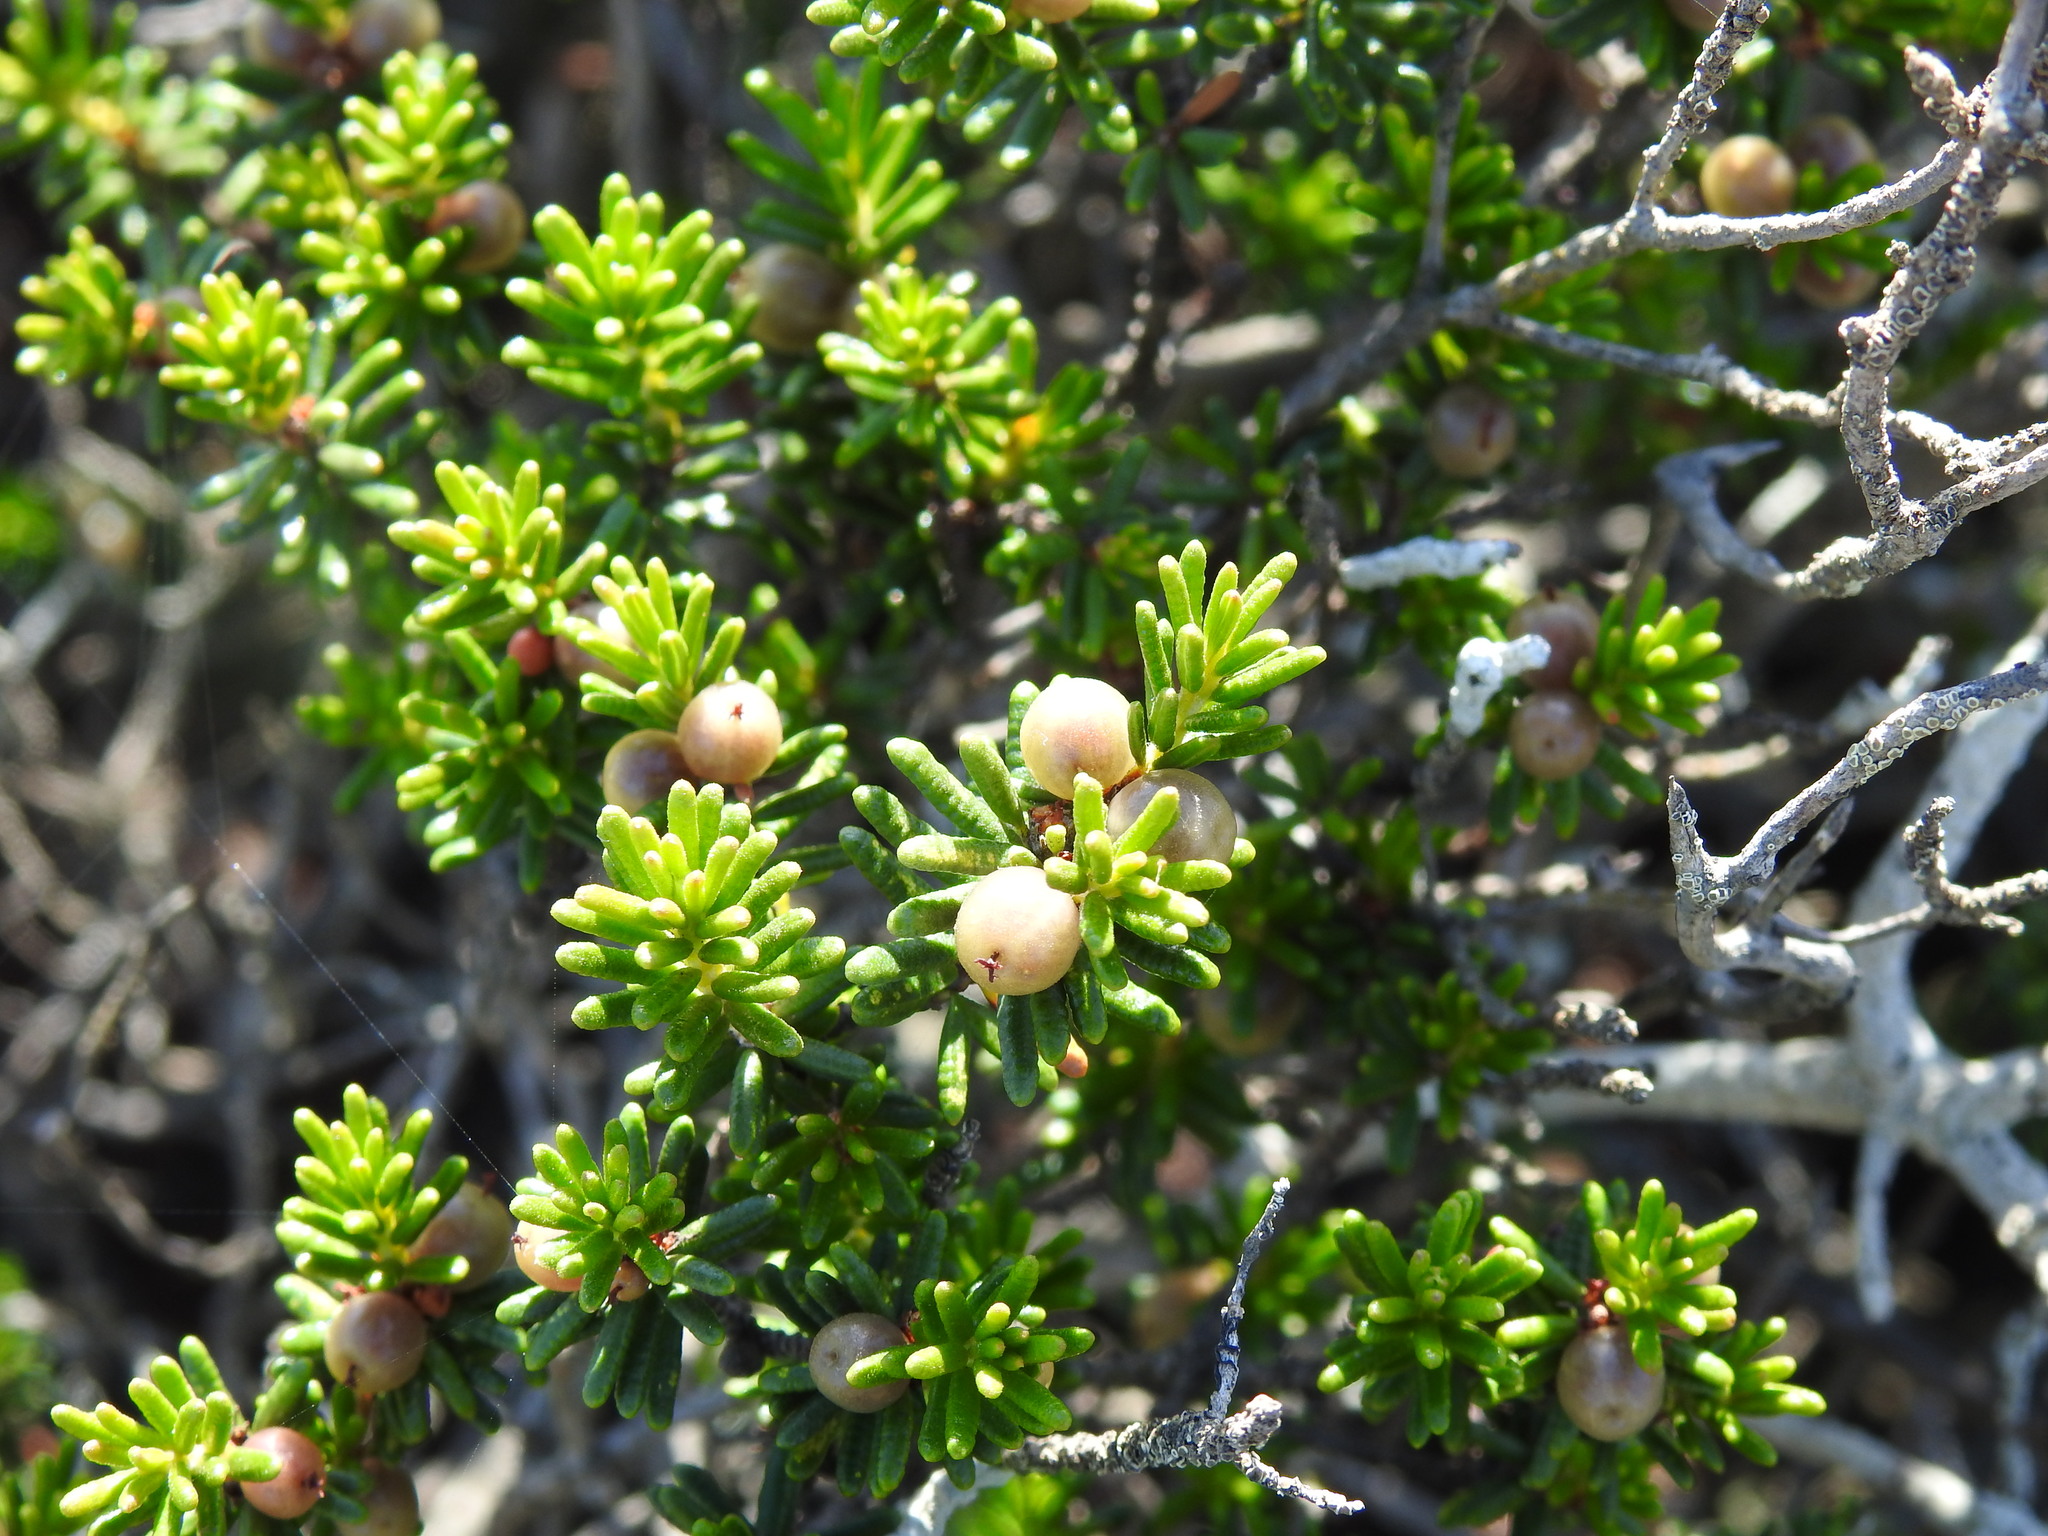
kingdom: Plantae
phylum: Tracheophyta
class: Magnoliopsida
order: Ericales
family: Ericaceae
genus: Corema
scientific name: Corema album
